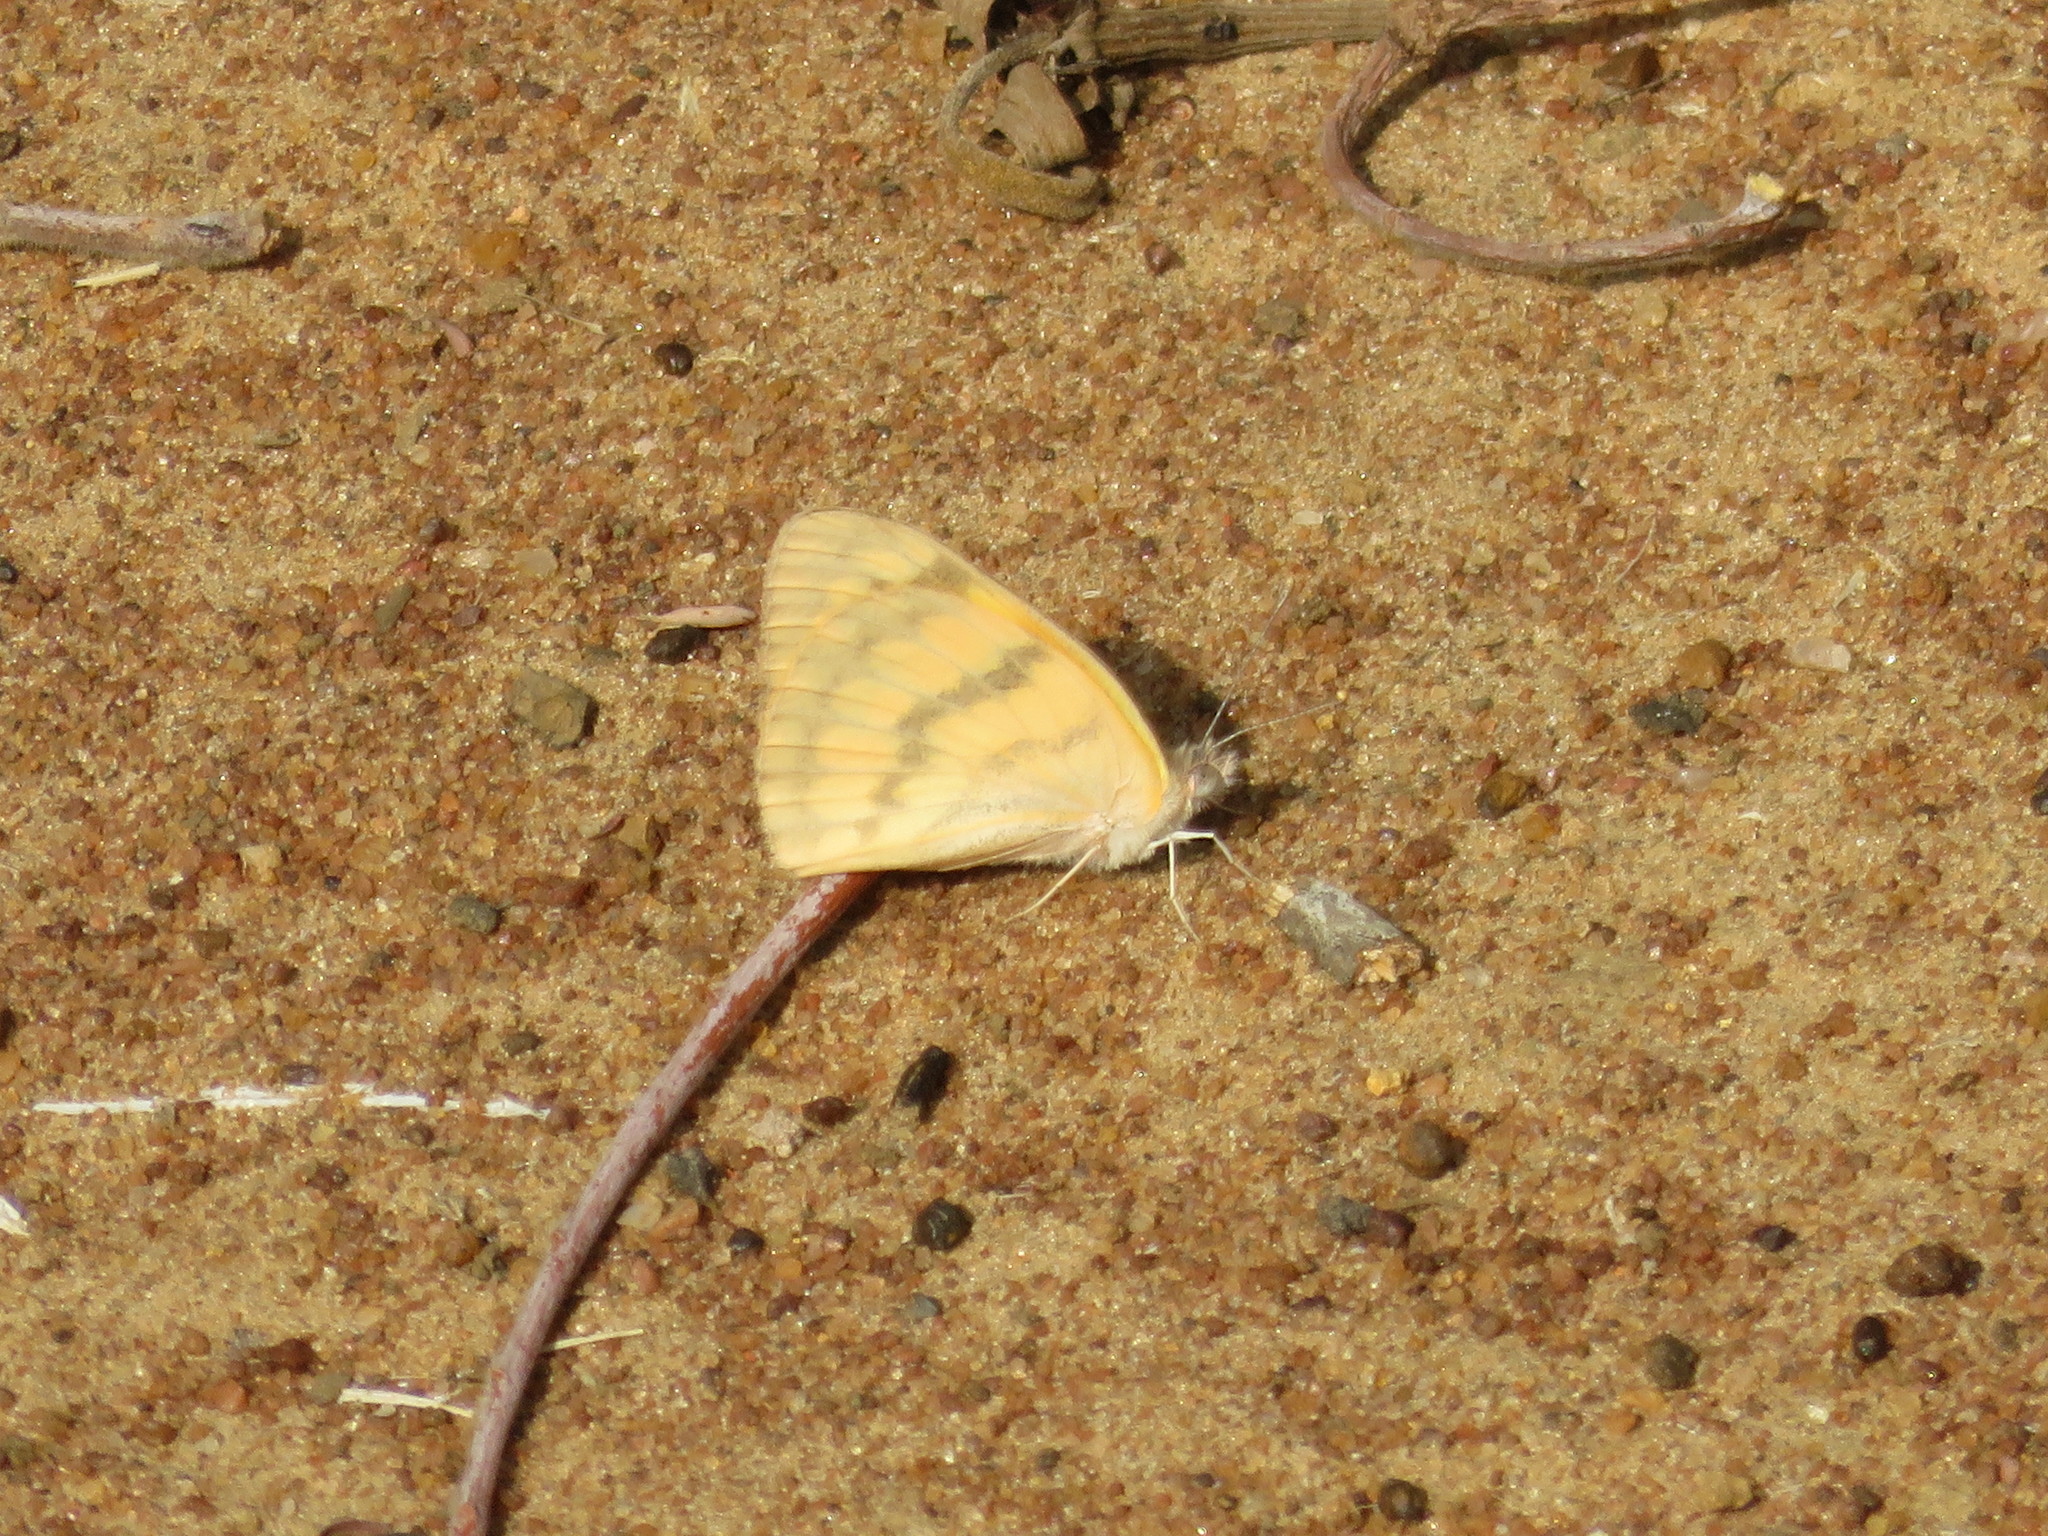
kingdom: Animalia
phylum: Arthropoda
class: Insecta
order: Lepidoptera
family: Pieridae
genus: Colotis
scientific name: Colotis vesta
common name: Veined golden arab
